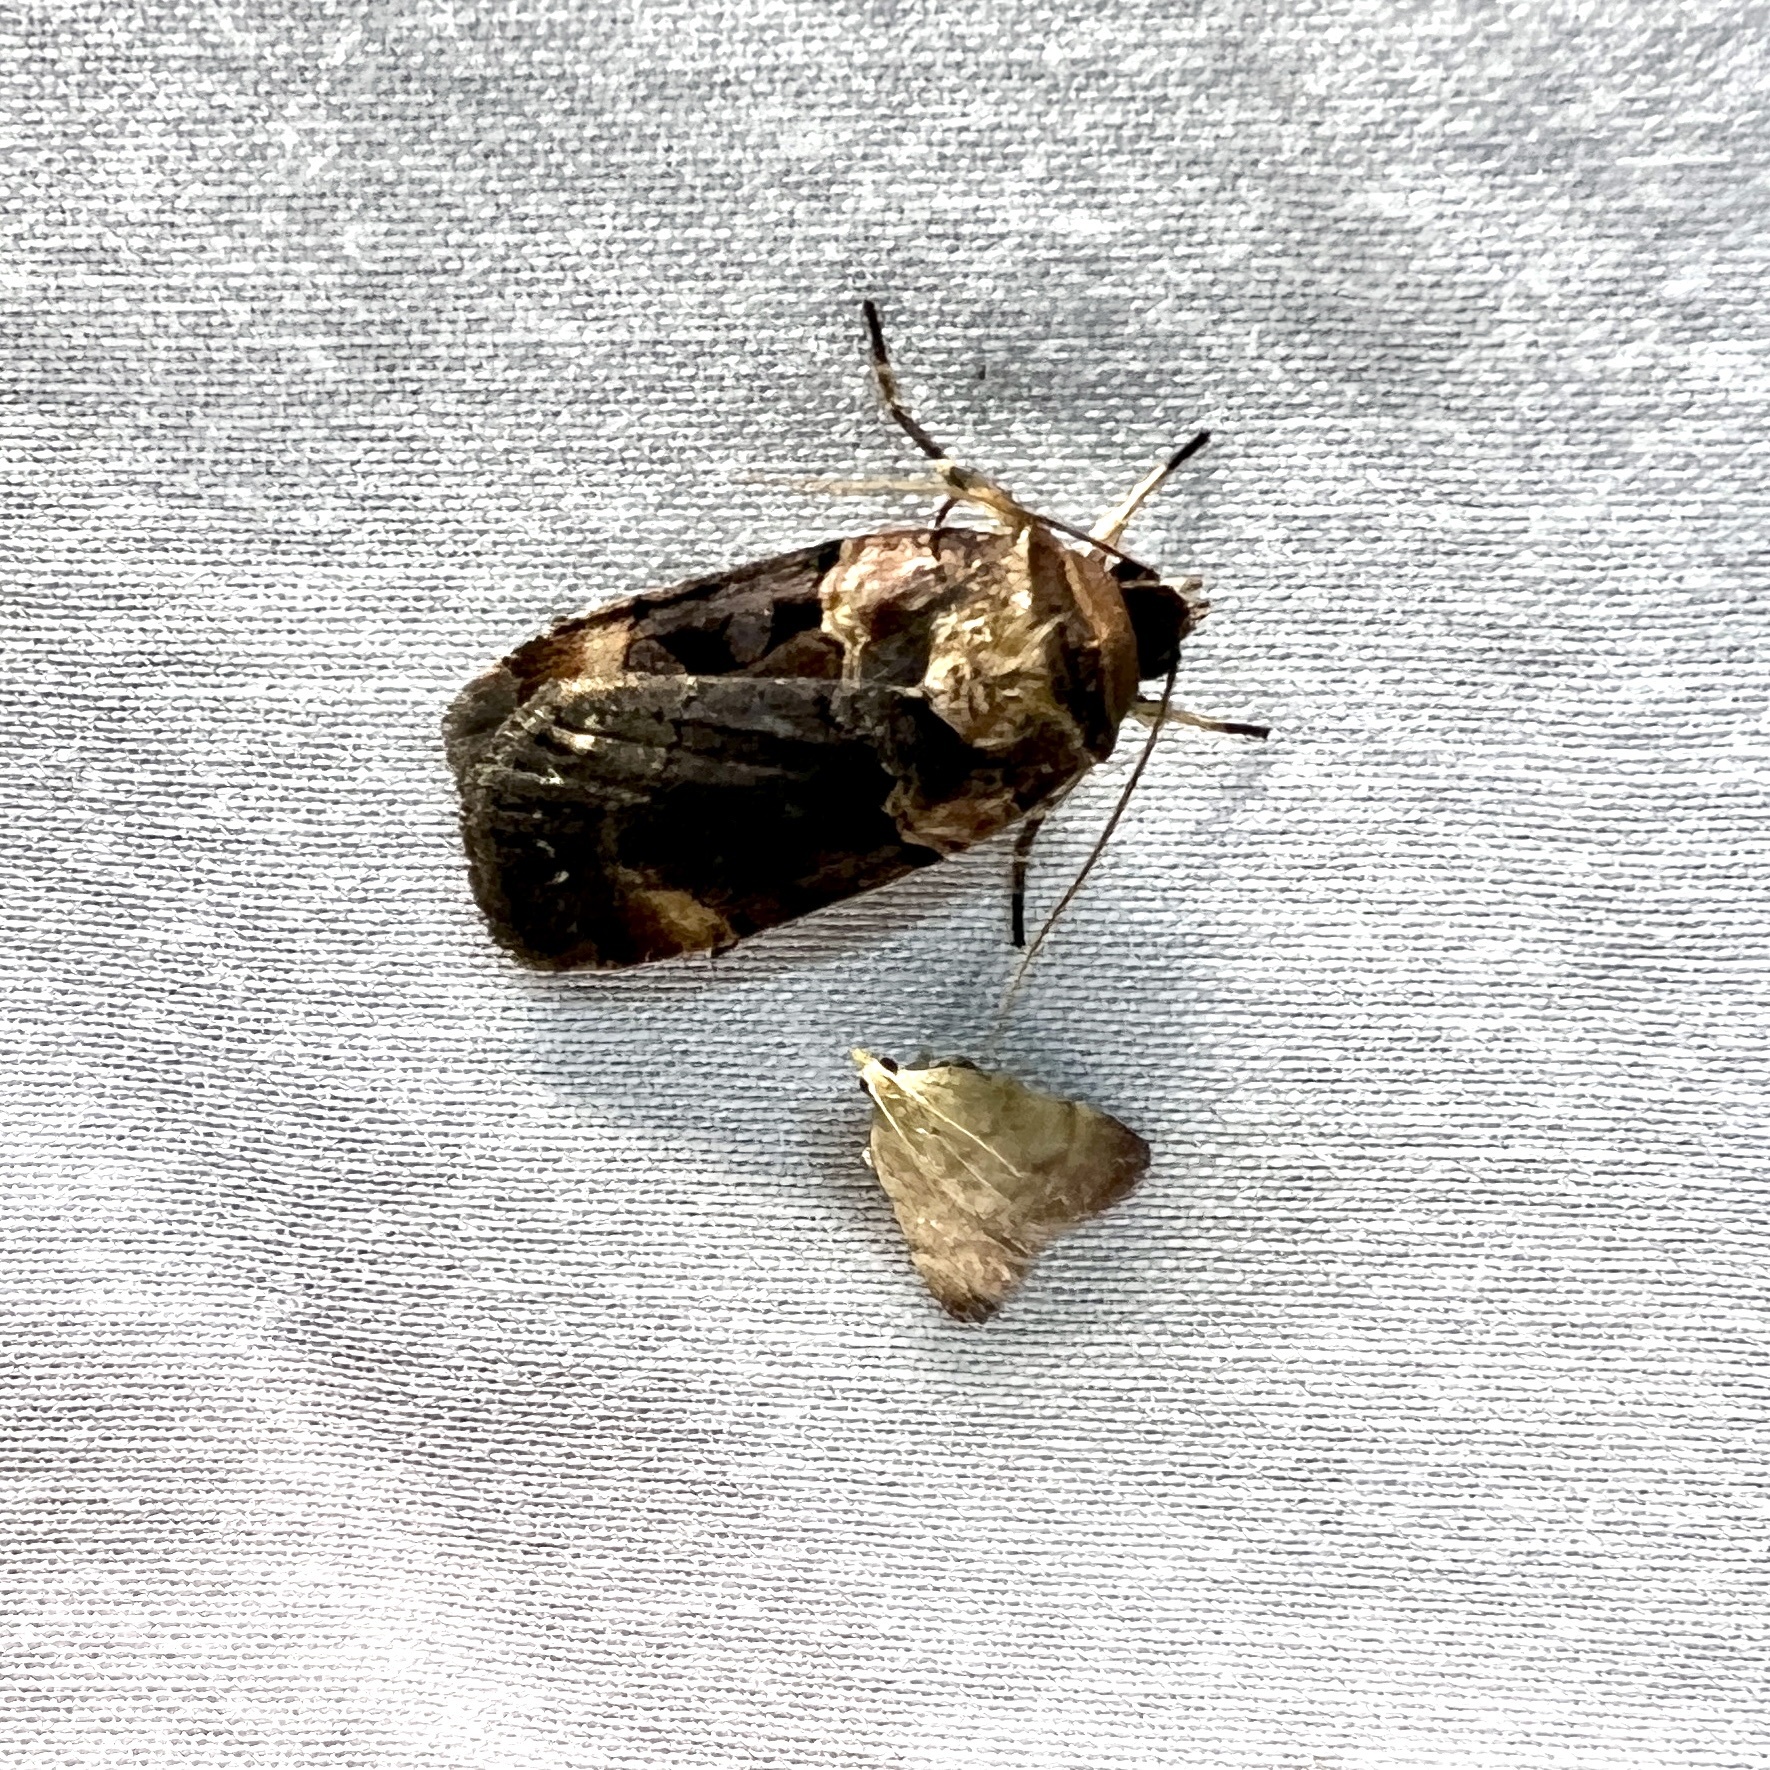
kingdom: Animalia
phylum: Arthropoda
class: Insecta
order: Lepidoptera
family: Noctuidae
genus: Pseudohermonassa
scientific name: Pseudohermonassa bicarnea
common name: Pink spotted dart
